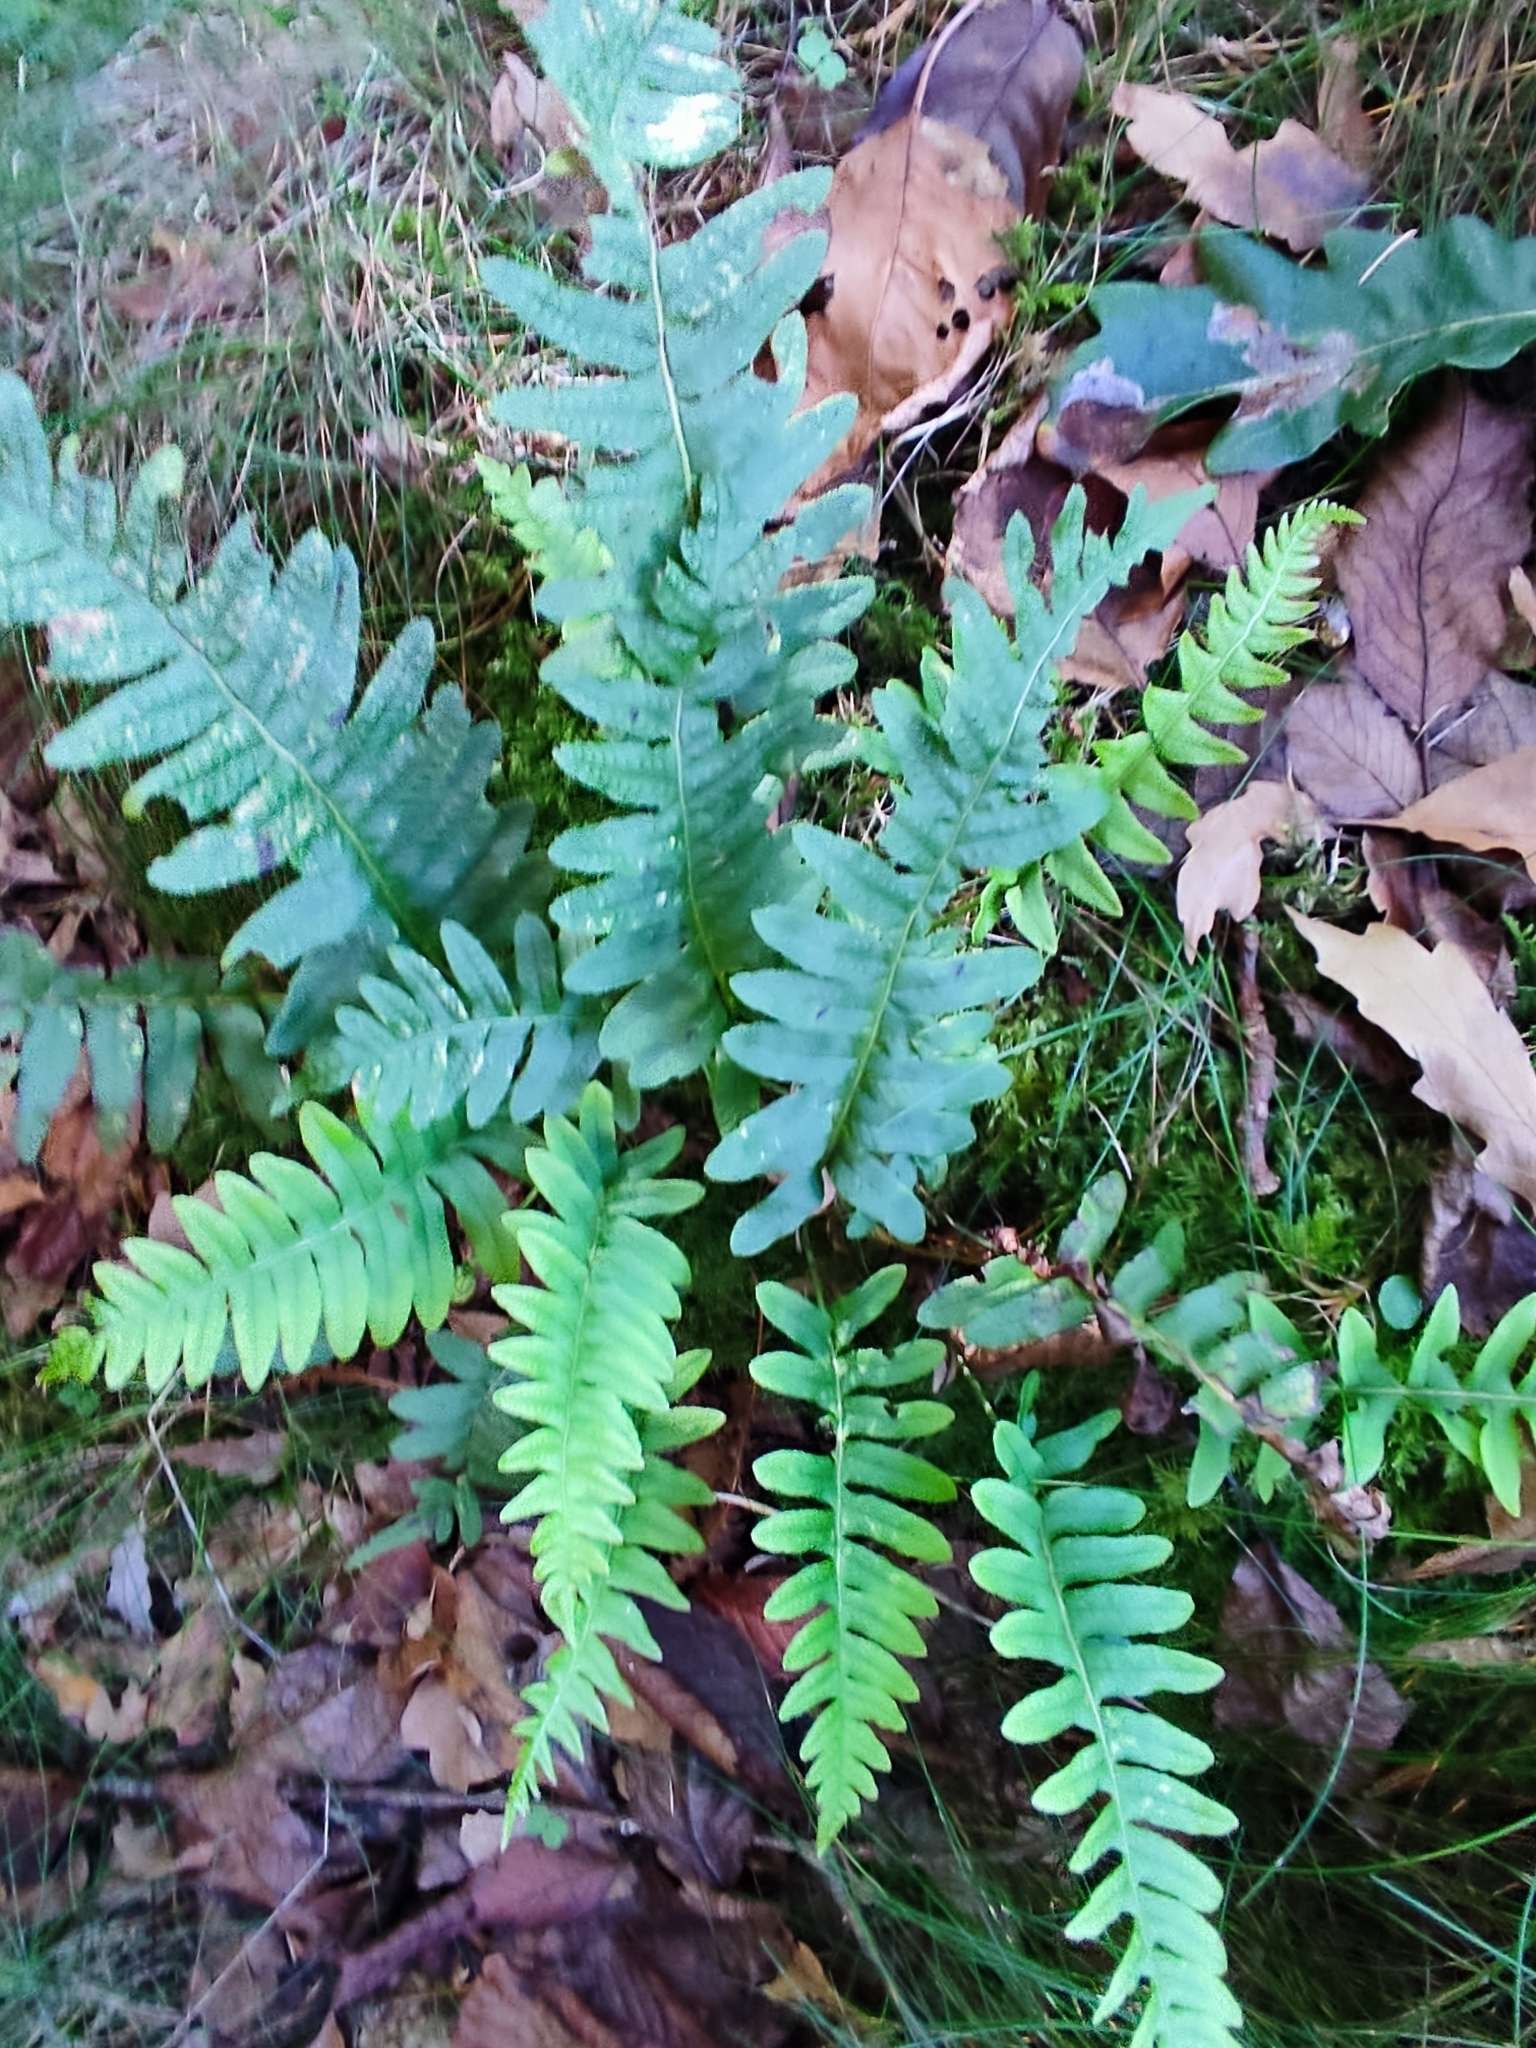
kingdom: Plantae
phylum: Tracheophyta
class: Polypodiopsida
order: Polypodiales
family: Polypodiaceae
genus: Polypodium
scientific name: Polypodium vulgare
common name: Common polypody
